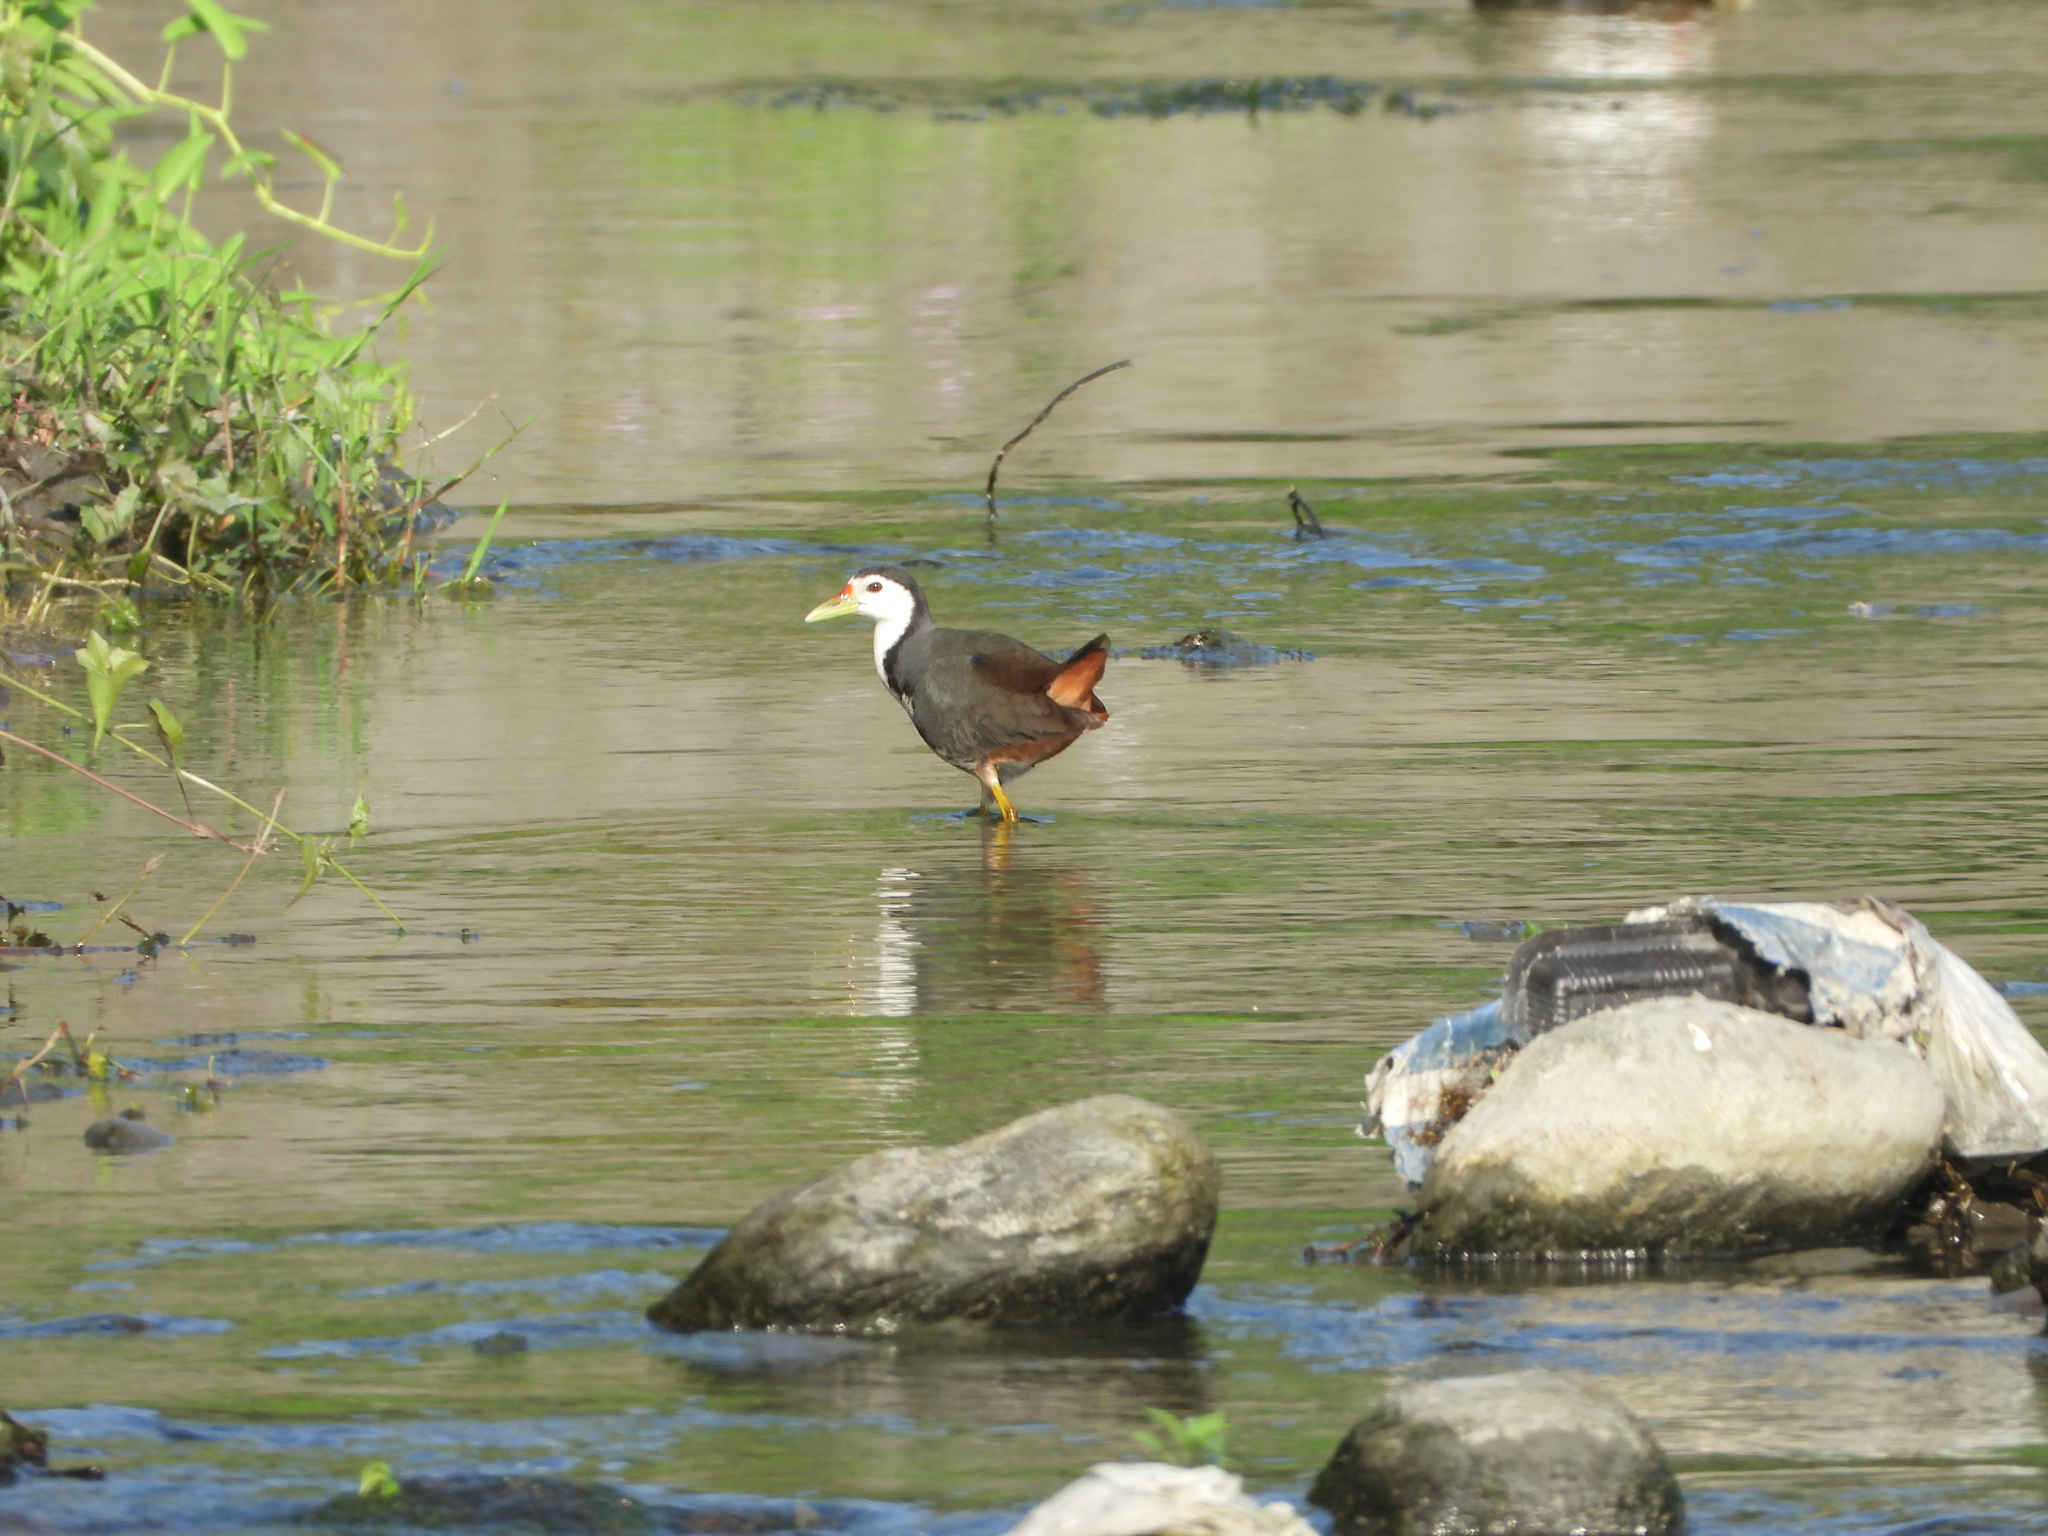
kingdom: Animalia
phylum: Chordata
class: Aves
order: Gruiformes
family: Rallidae
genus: Amaurornis
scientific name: Amaurornis phoenicurus
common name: White-breasted waterhen
